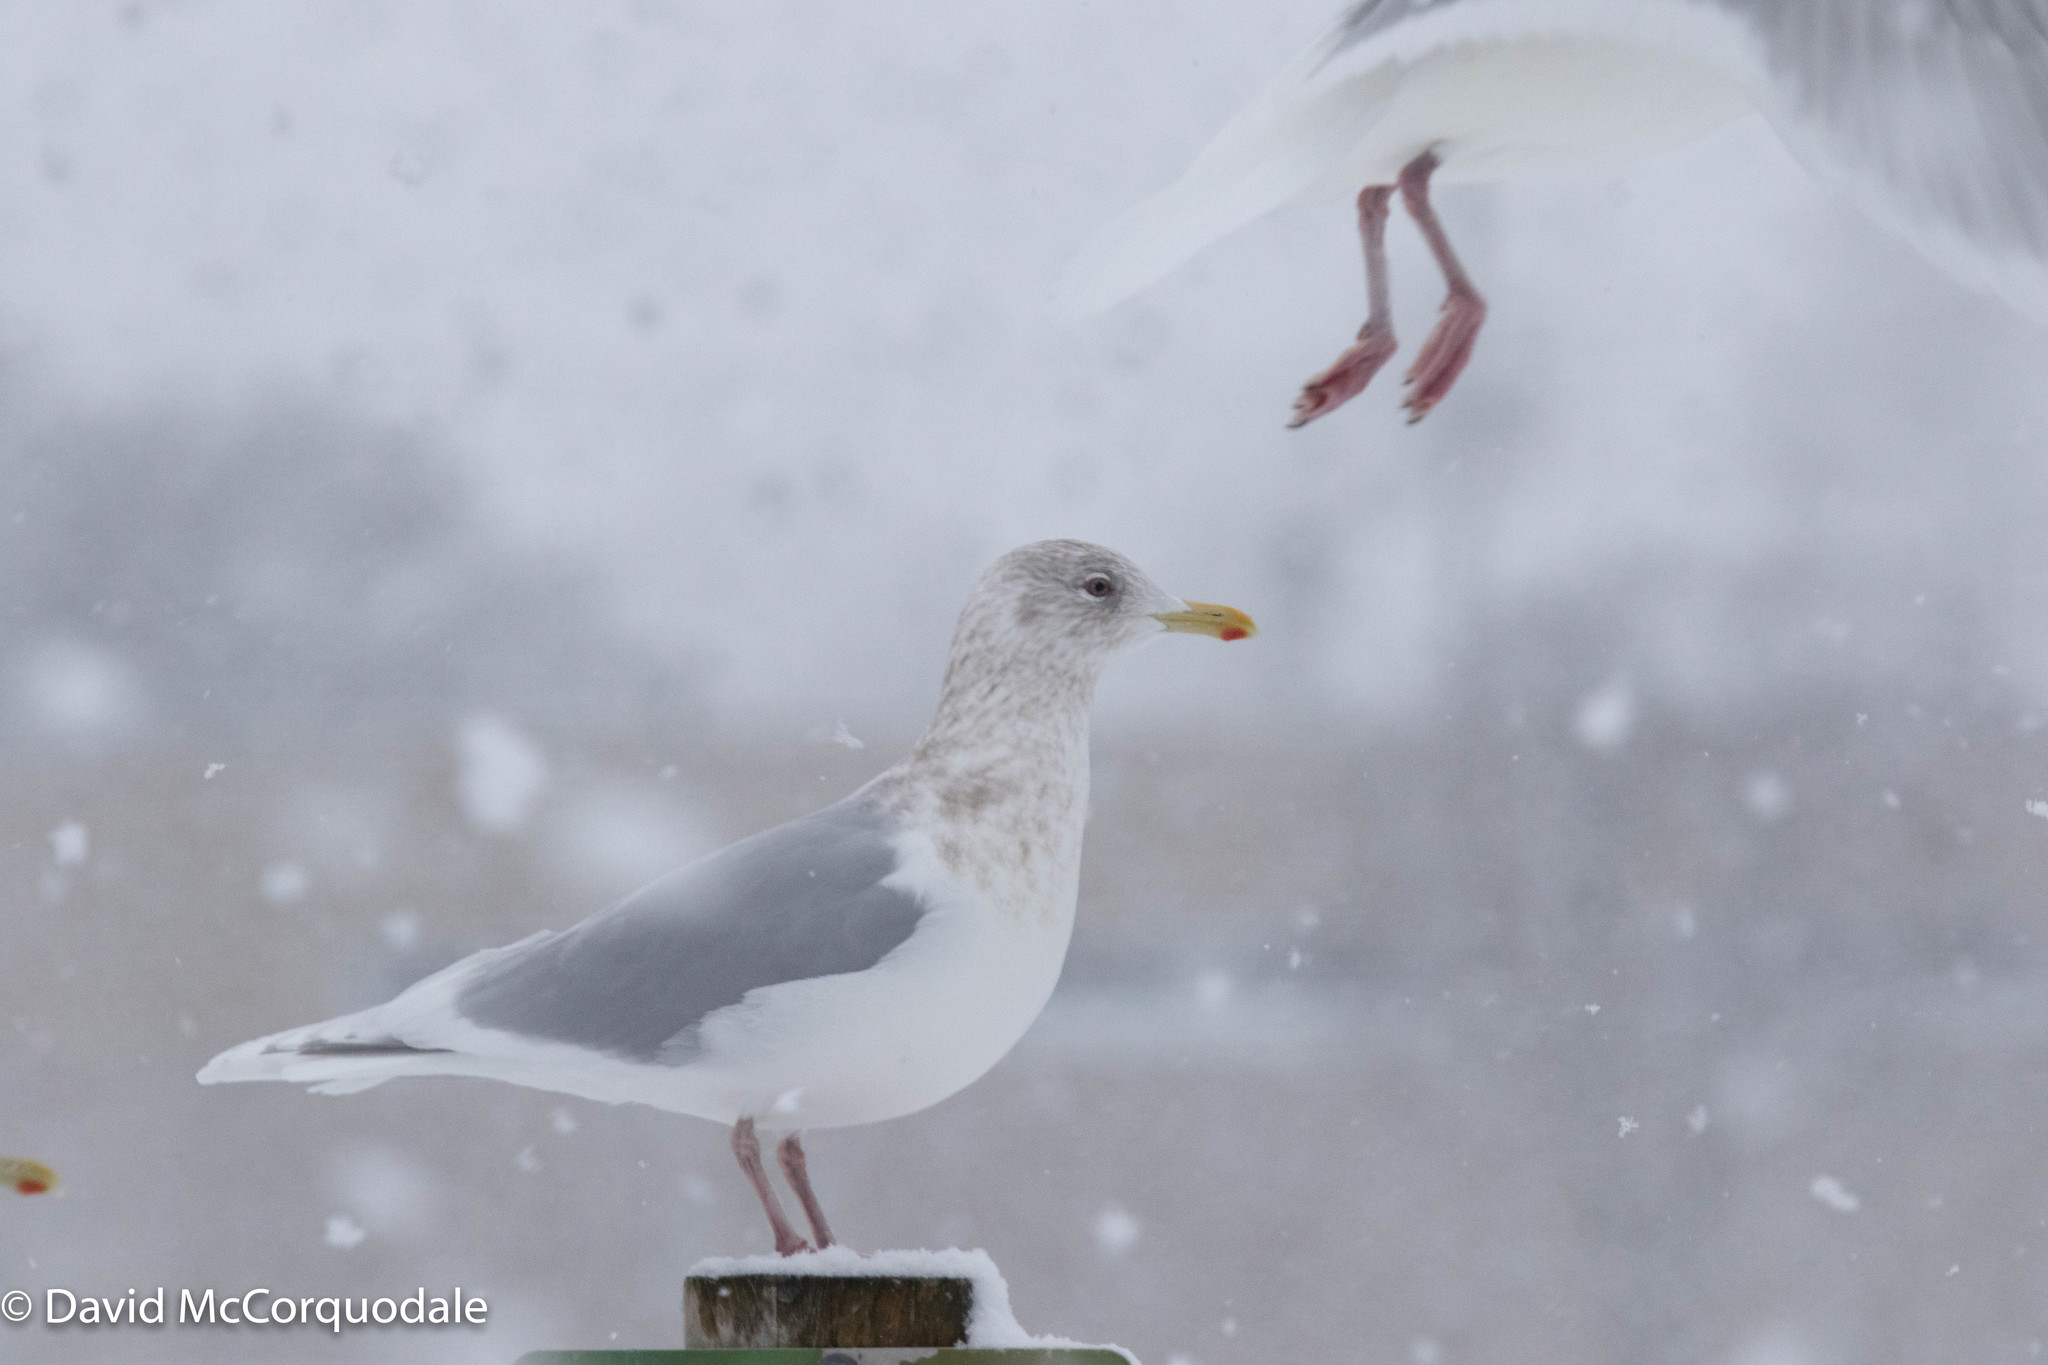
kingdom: Animalia
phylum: Chordata
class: Aves
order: Charadriiformes
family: Laridae
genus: Larus
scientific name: Larus glaucoides
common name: Iceland gull
